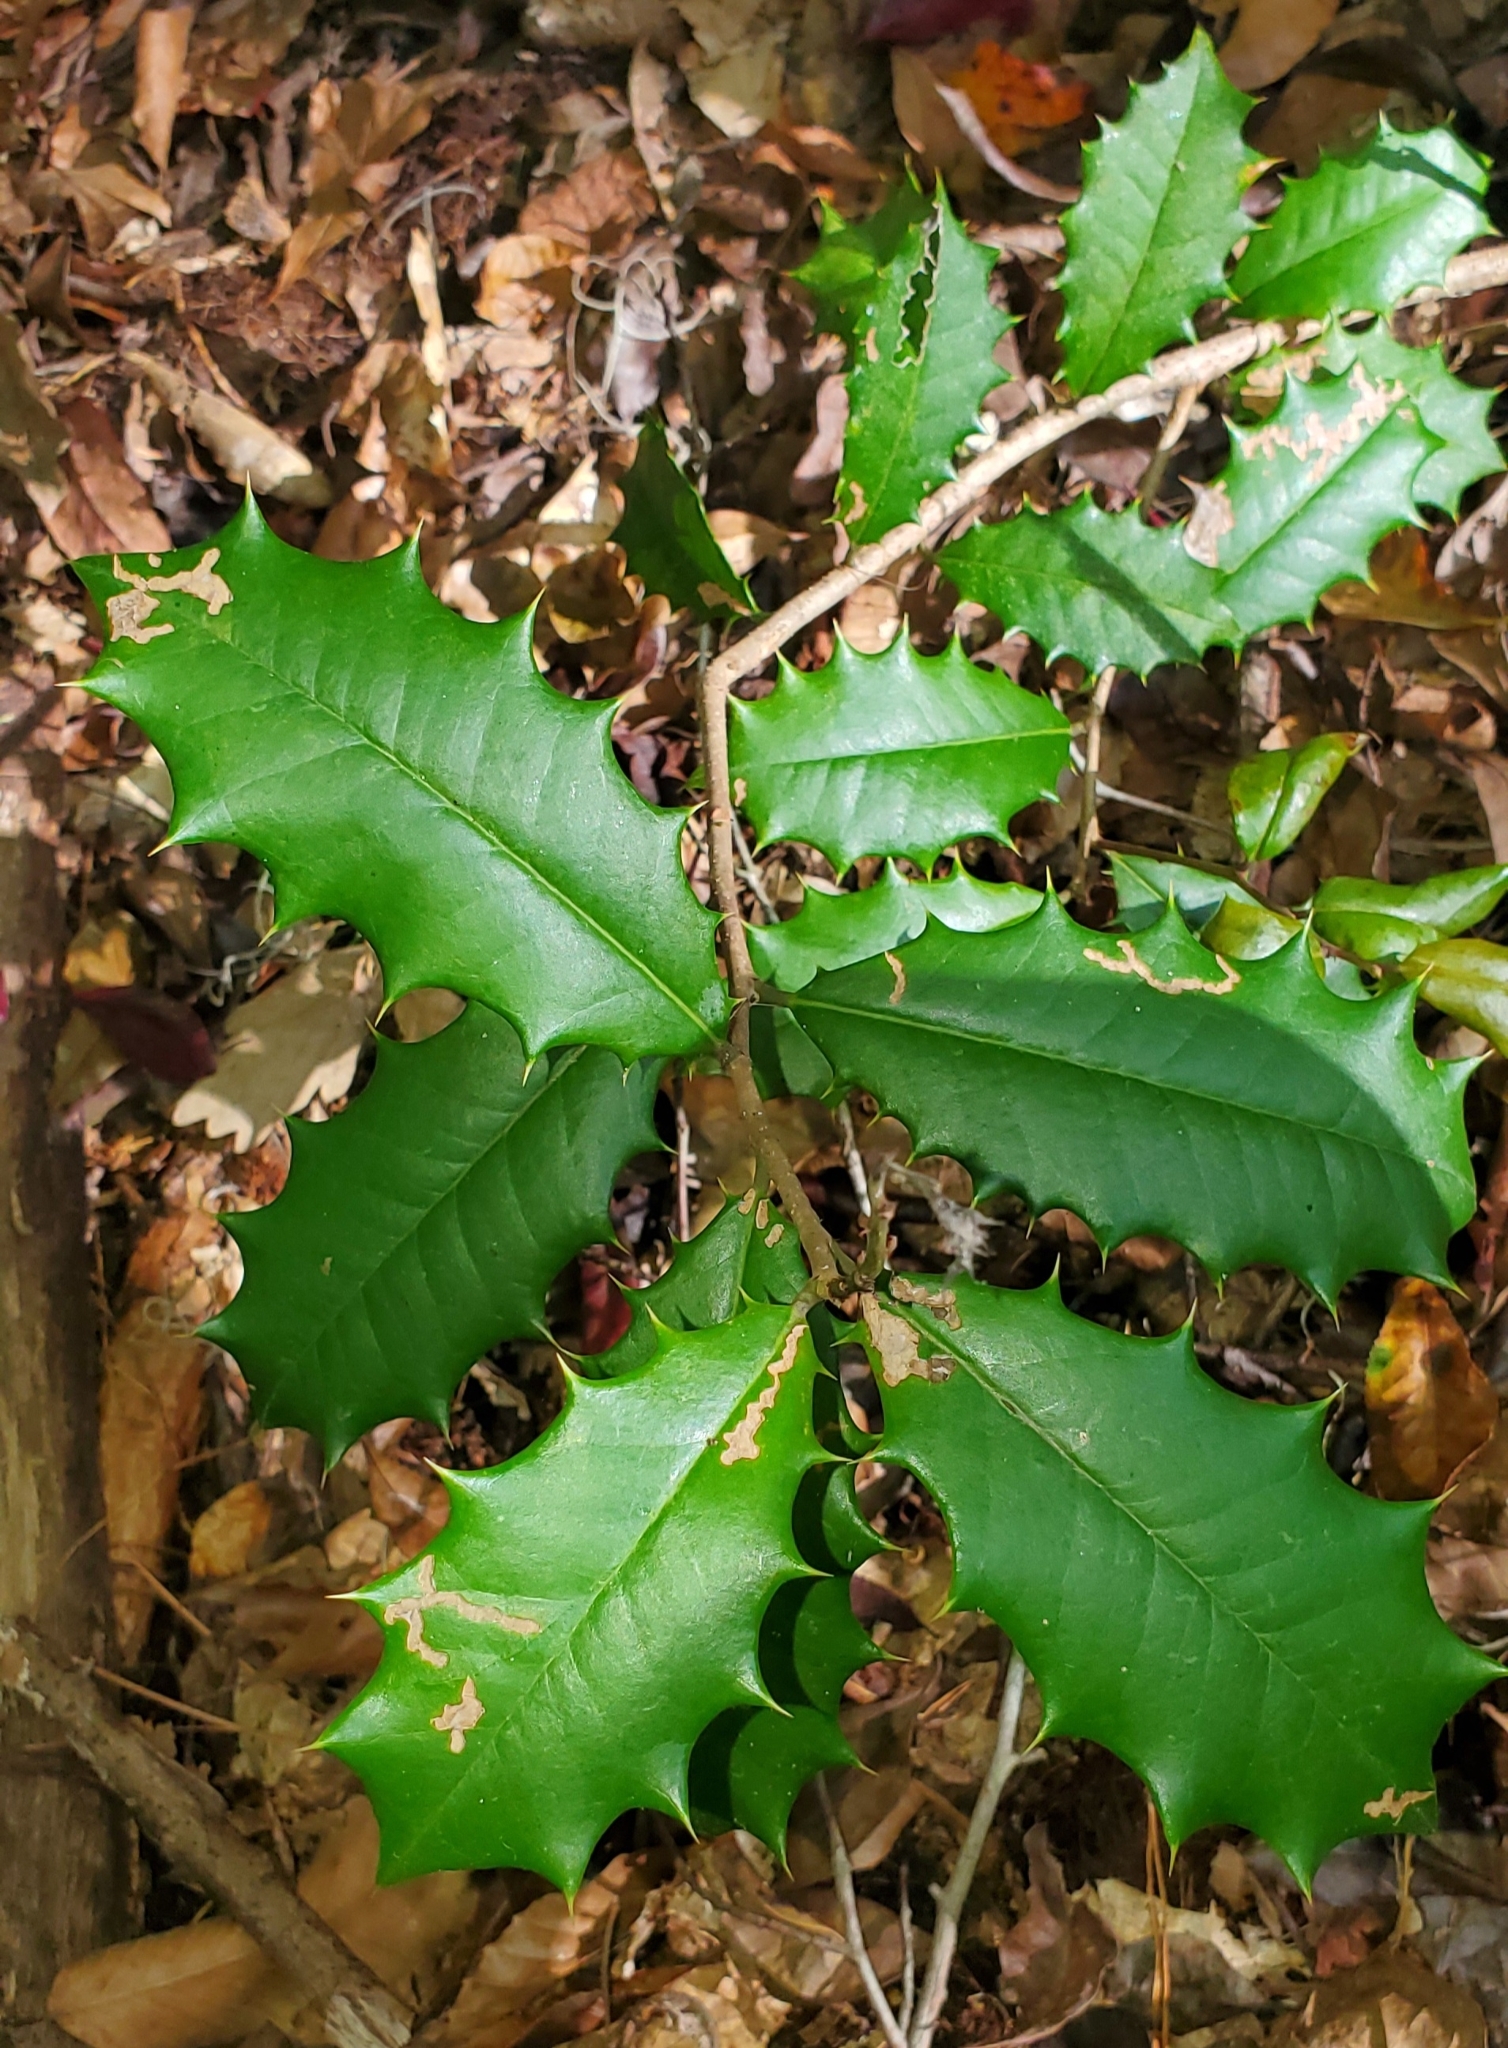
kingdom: Plantae
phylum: Tracheophyta
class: Magnoliopsida
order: Aquifoliales
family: Aquifoliaceae
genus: Ilex
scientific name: Ilex opaca
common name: American holly
